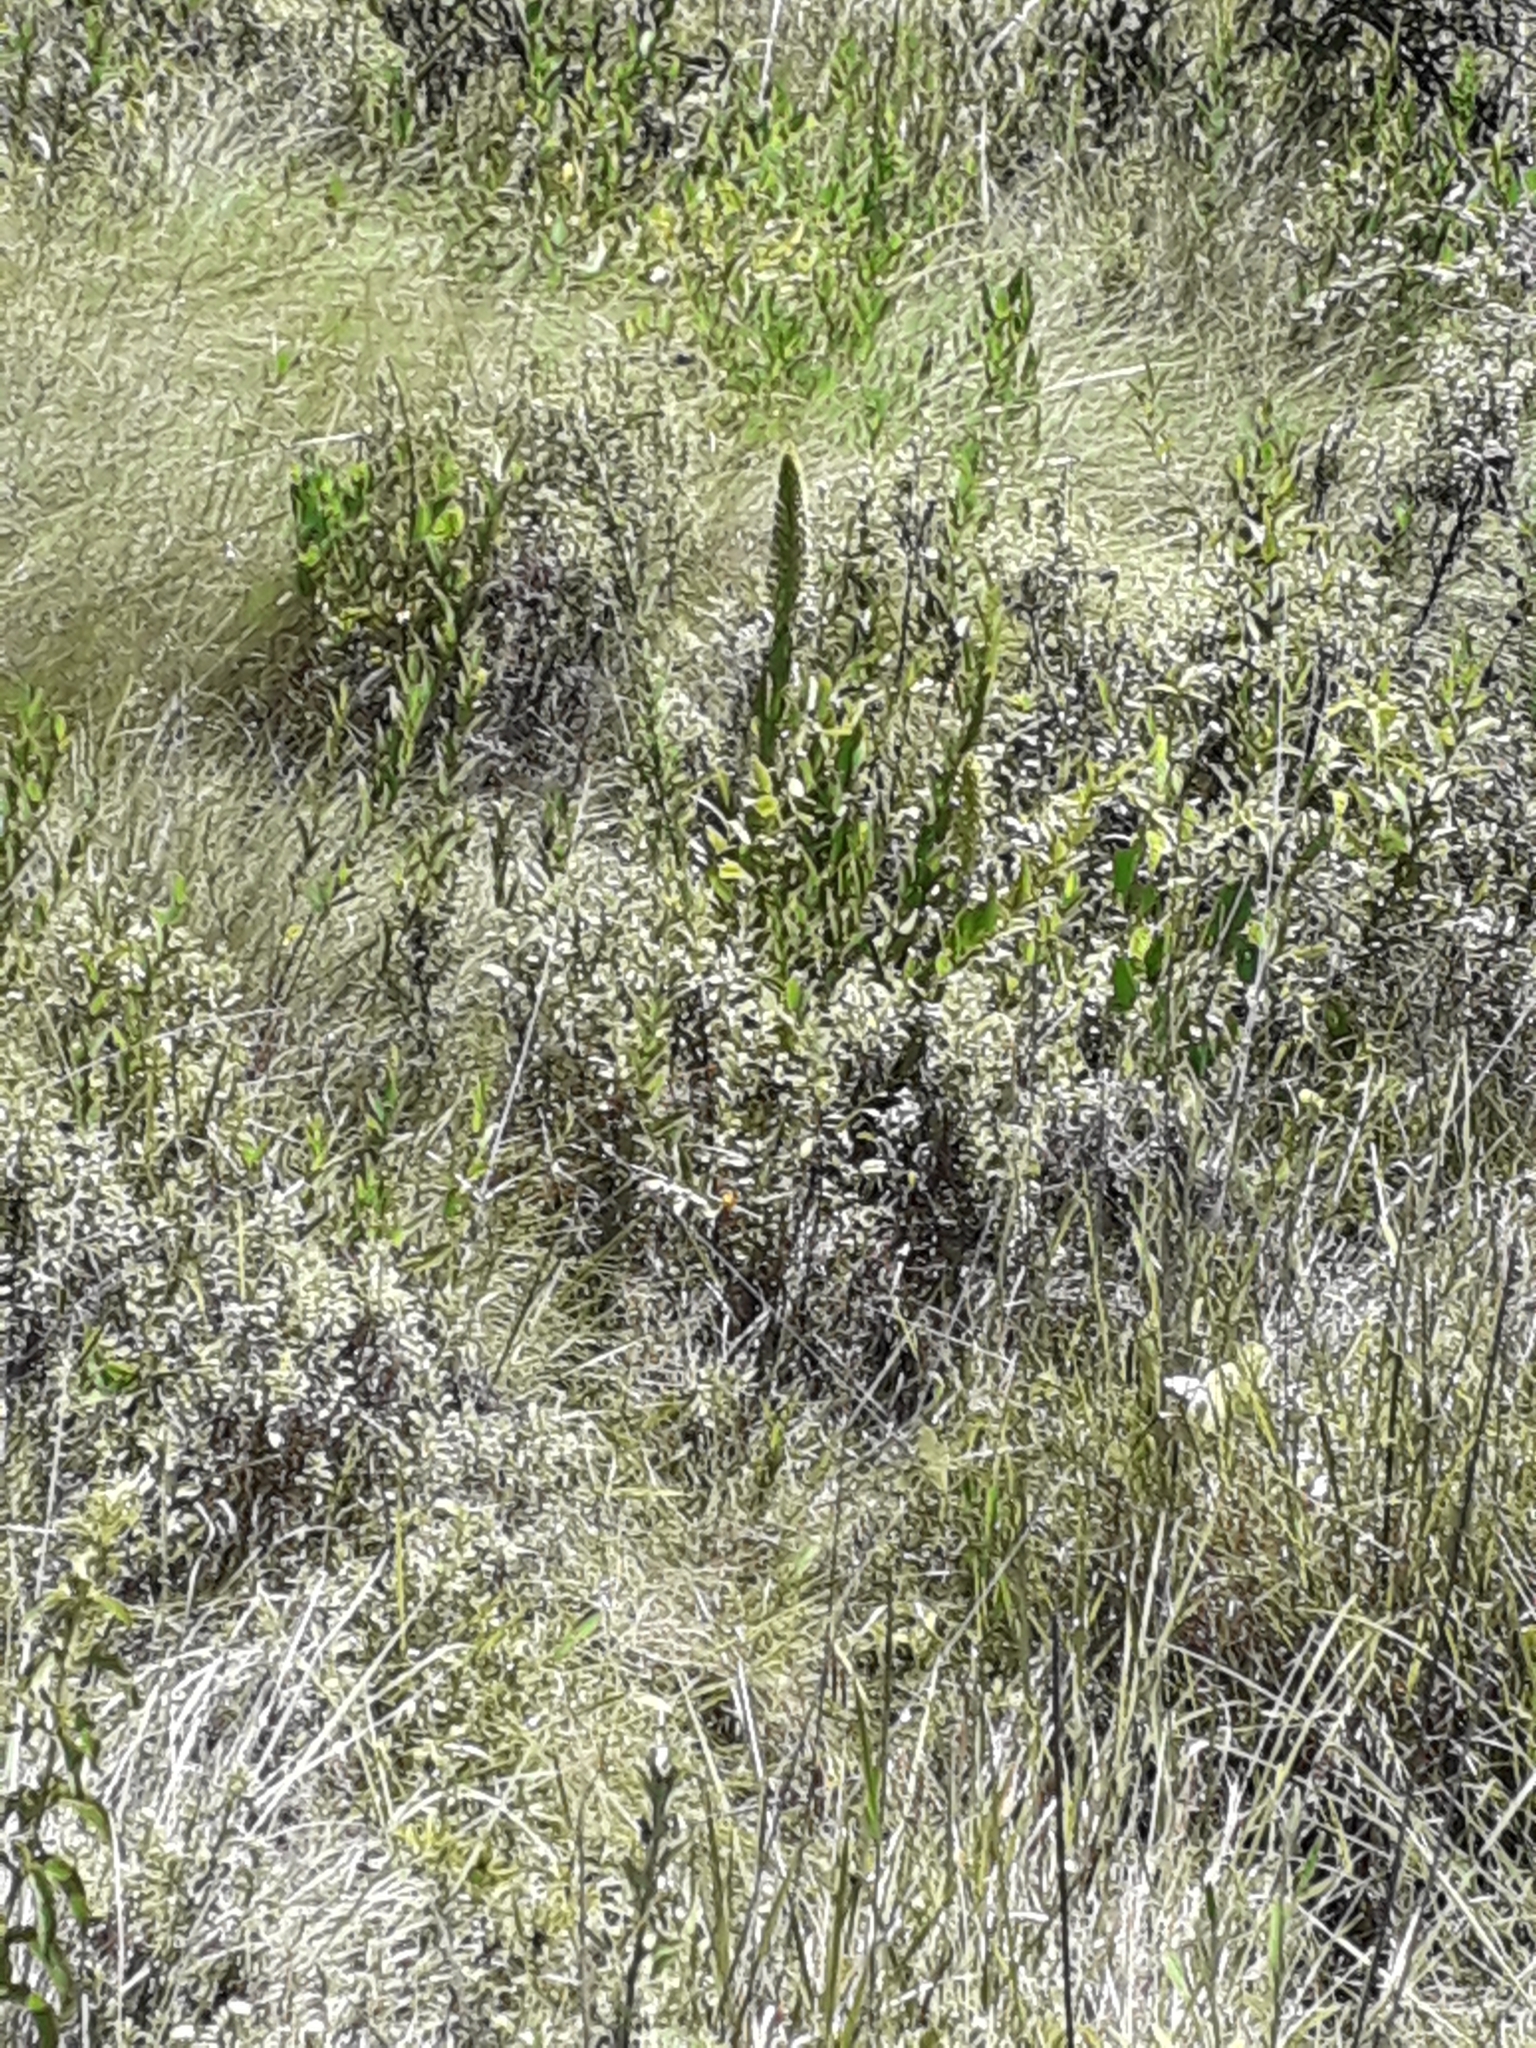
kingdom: Plantae
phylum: Tracheophyta
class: Liliopsida
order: Asparagales
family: Orchidaceae
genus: Pterygodium
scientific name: Pterygodium magnum
